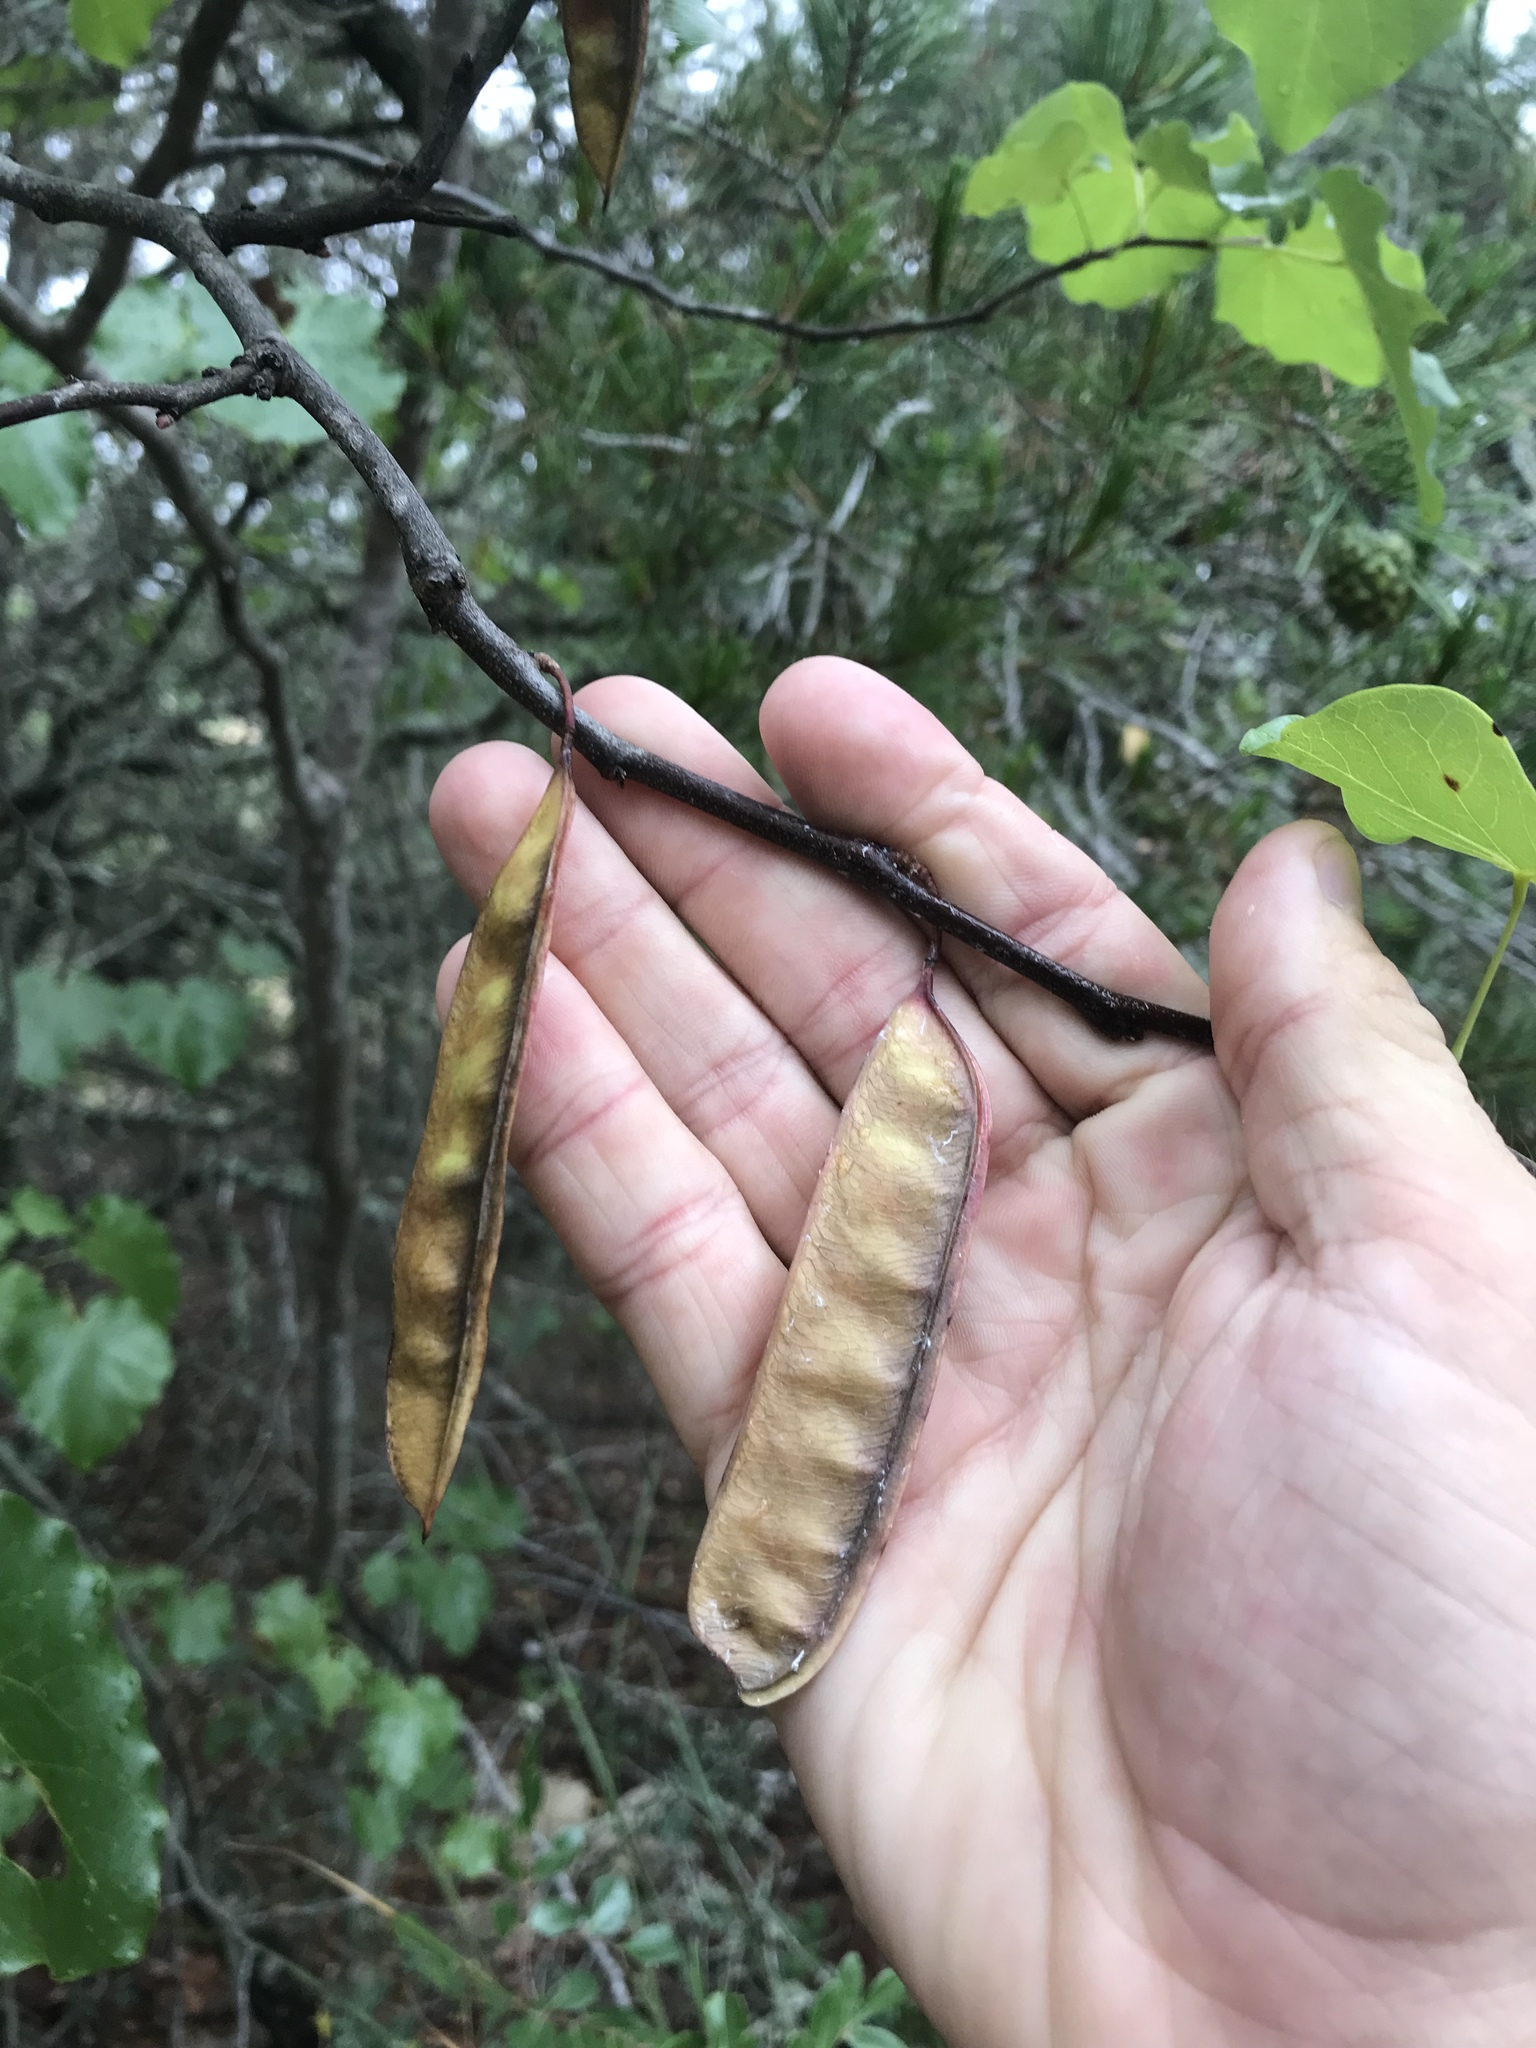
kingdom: Plantae
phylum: Tracheophyta
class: Magnoliopsida
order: Fabales
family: Fabaceae
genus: Cercis
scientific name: Cercis canadensis
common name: Eastern redbud
